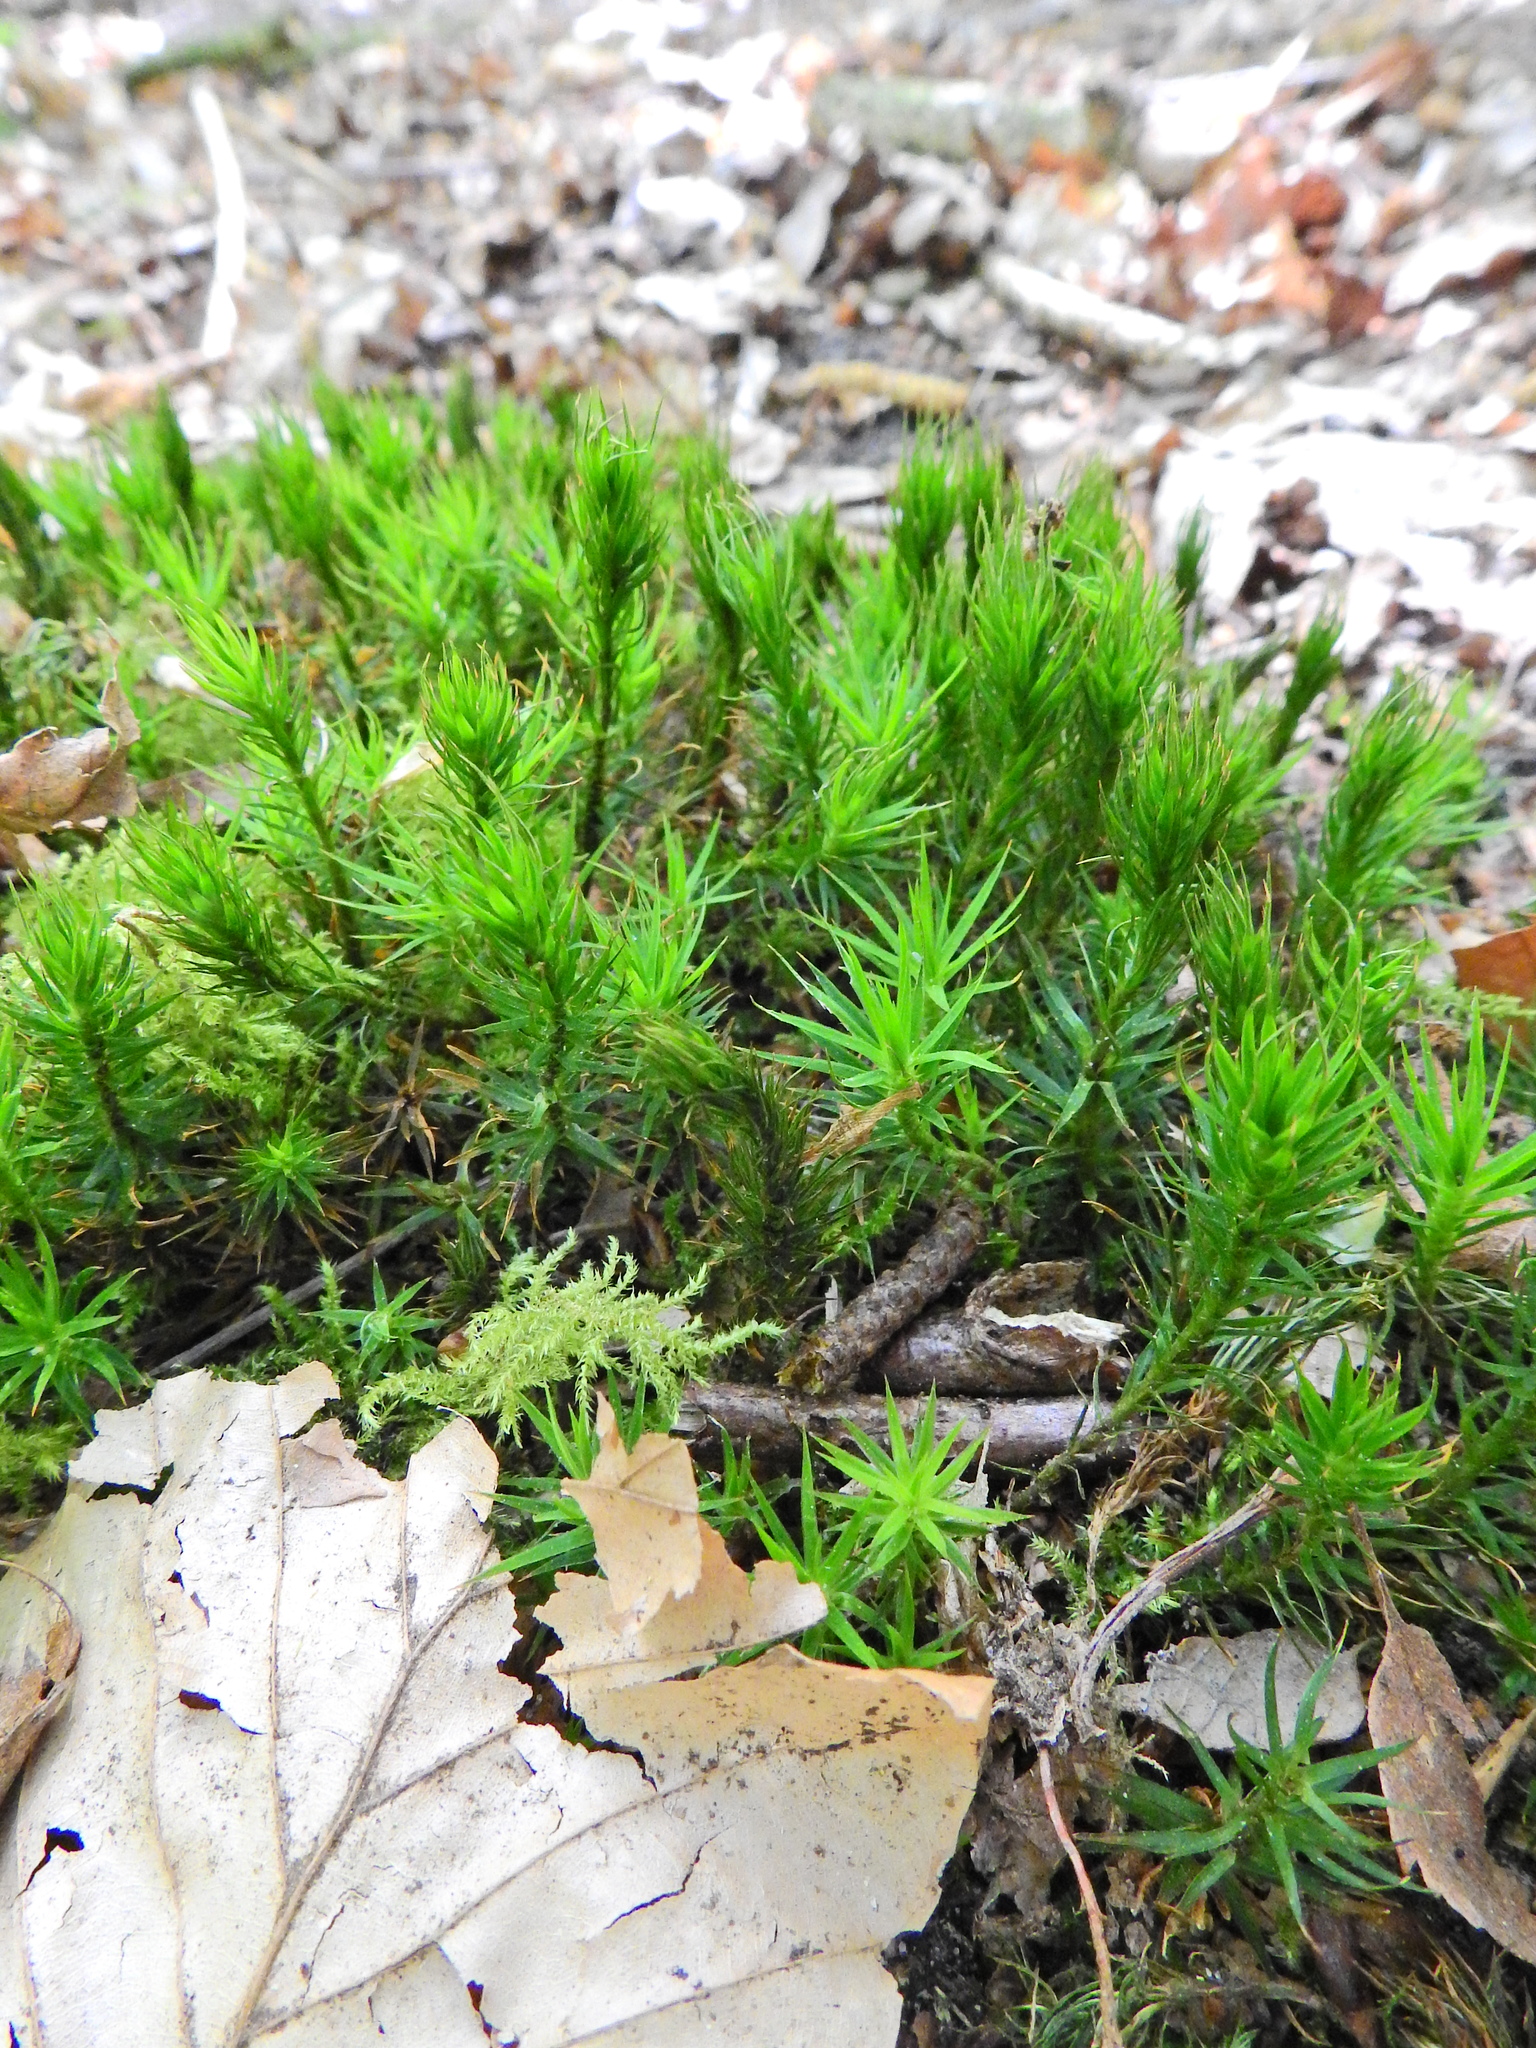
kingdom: Plantae
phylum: Bryophyta
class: Polytrichopsida
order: Polytrichales
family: Polytrichaceae
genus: Polytrichum
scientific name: Polytrichum formosum
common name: Bank haircap moss
